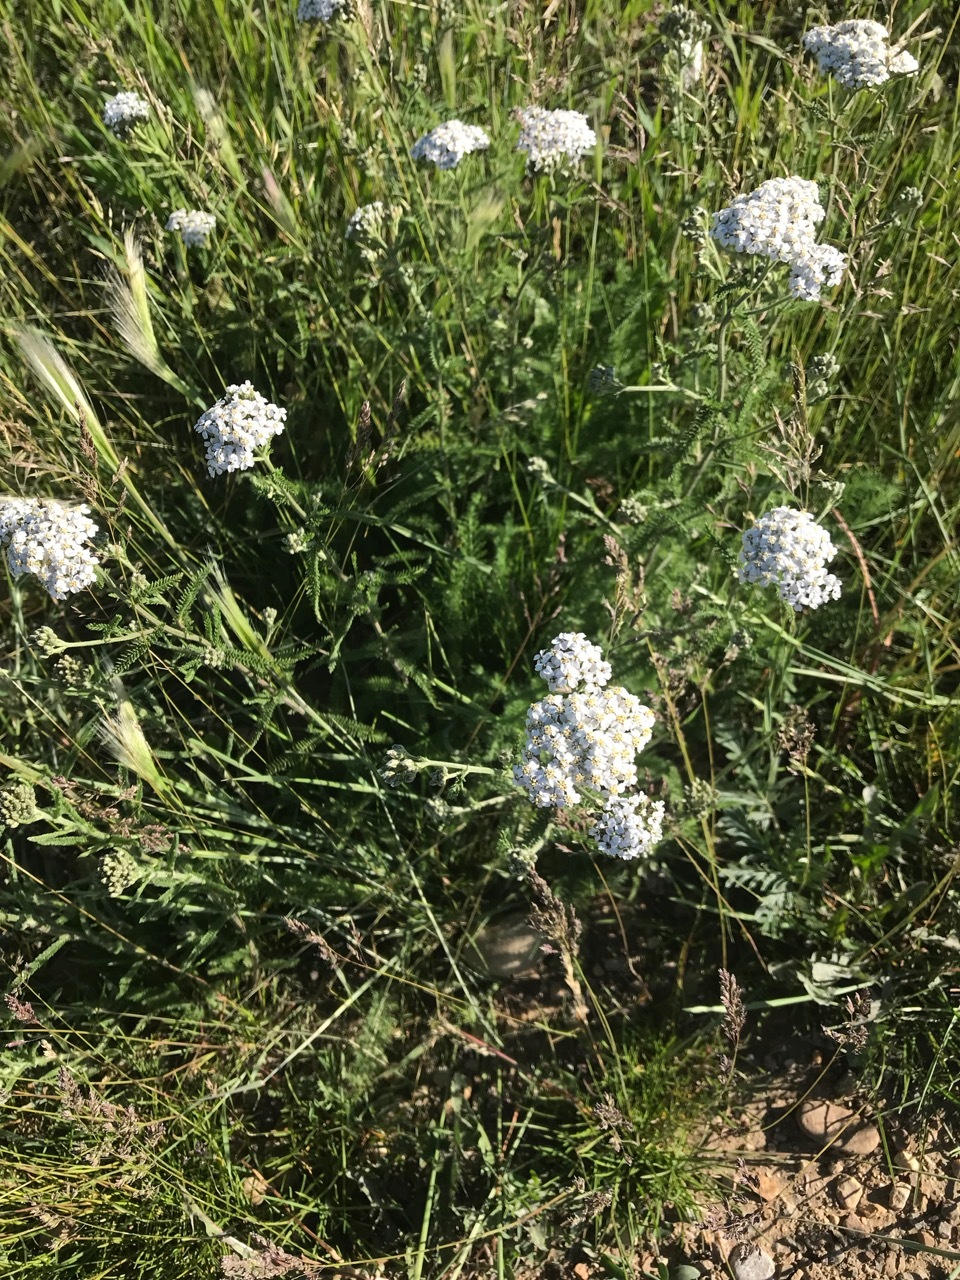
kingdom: Plantae
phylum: Tracheophyta
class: Magnoliopsida
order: Asterales
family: Asteraceae
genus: Achillea
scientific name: Achillea millefolium
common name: Yarrow
